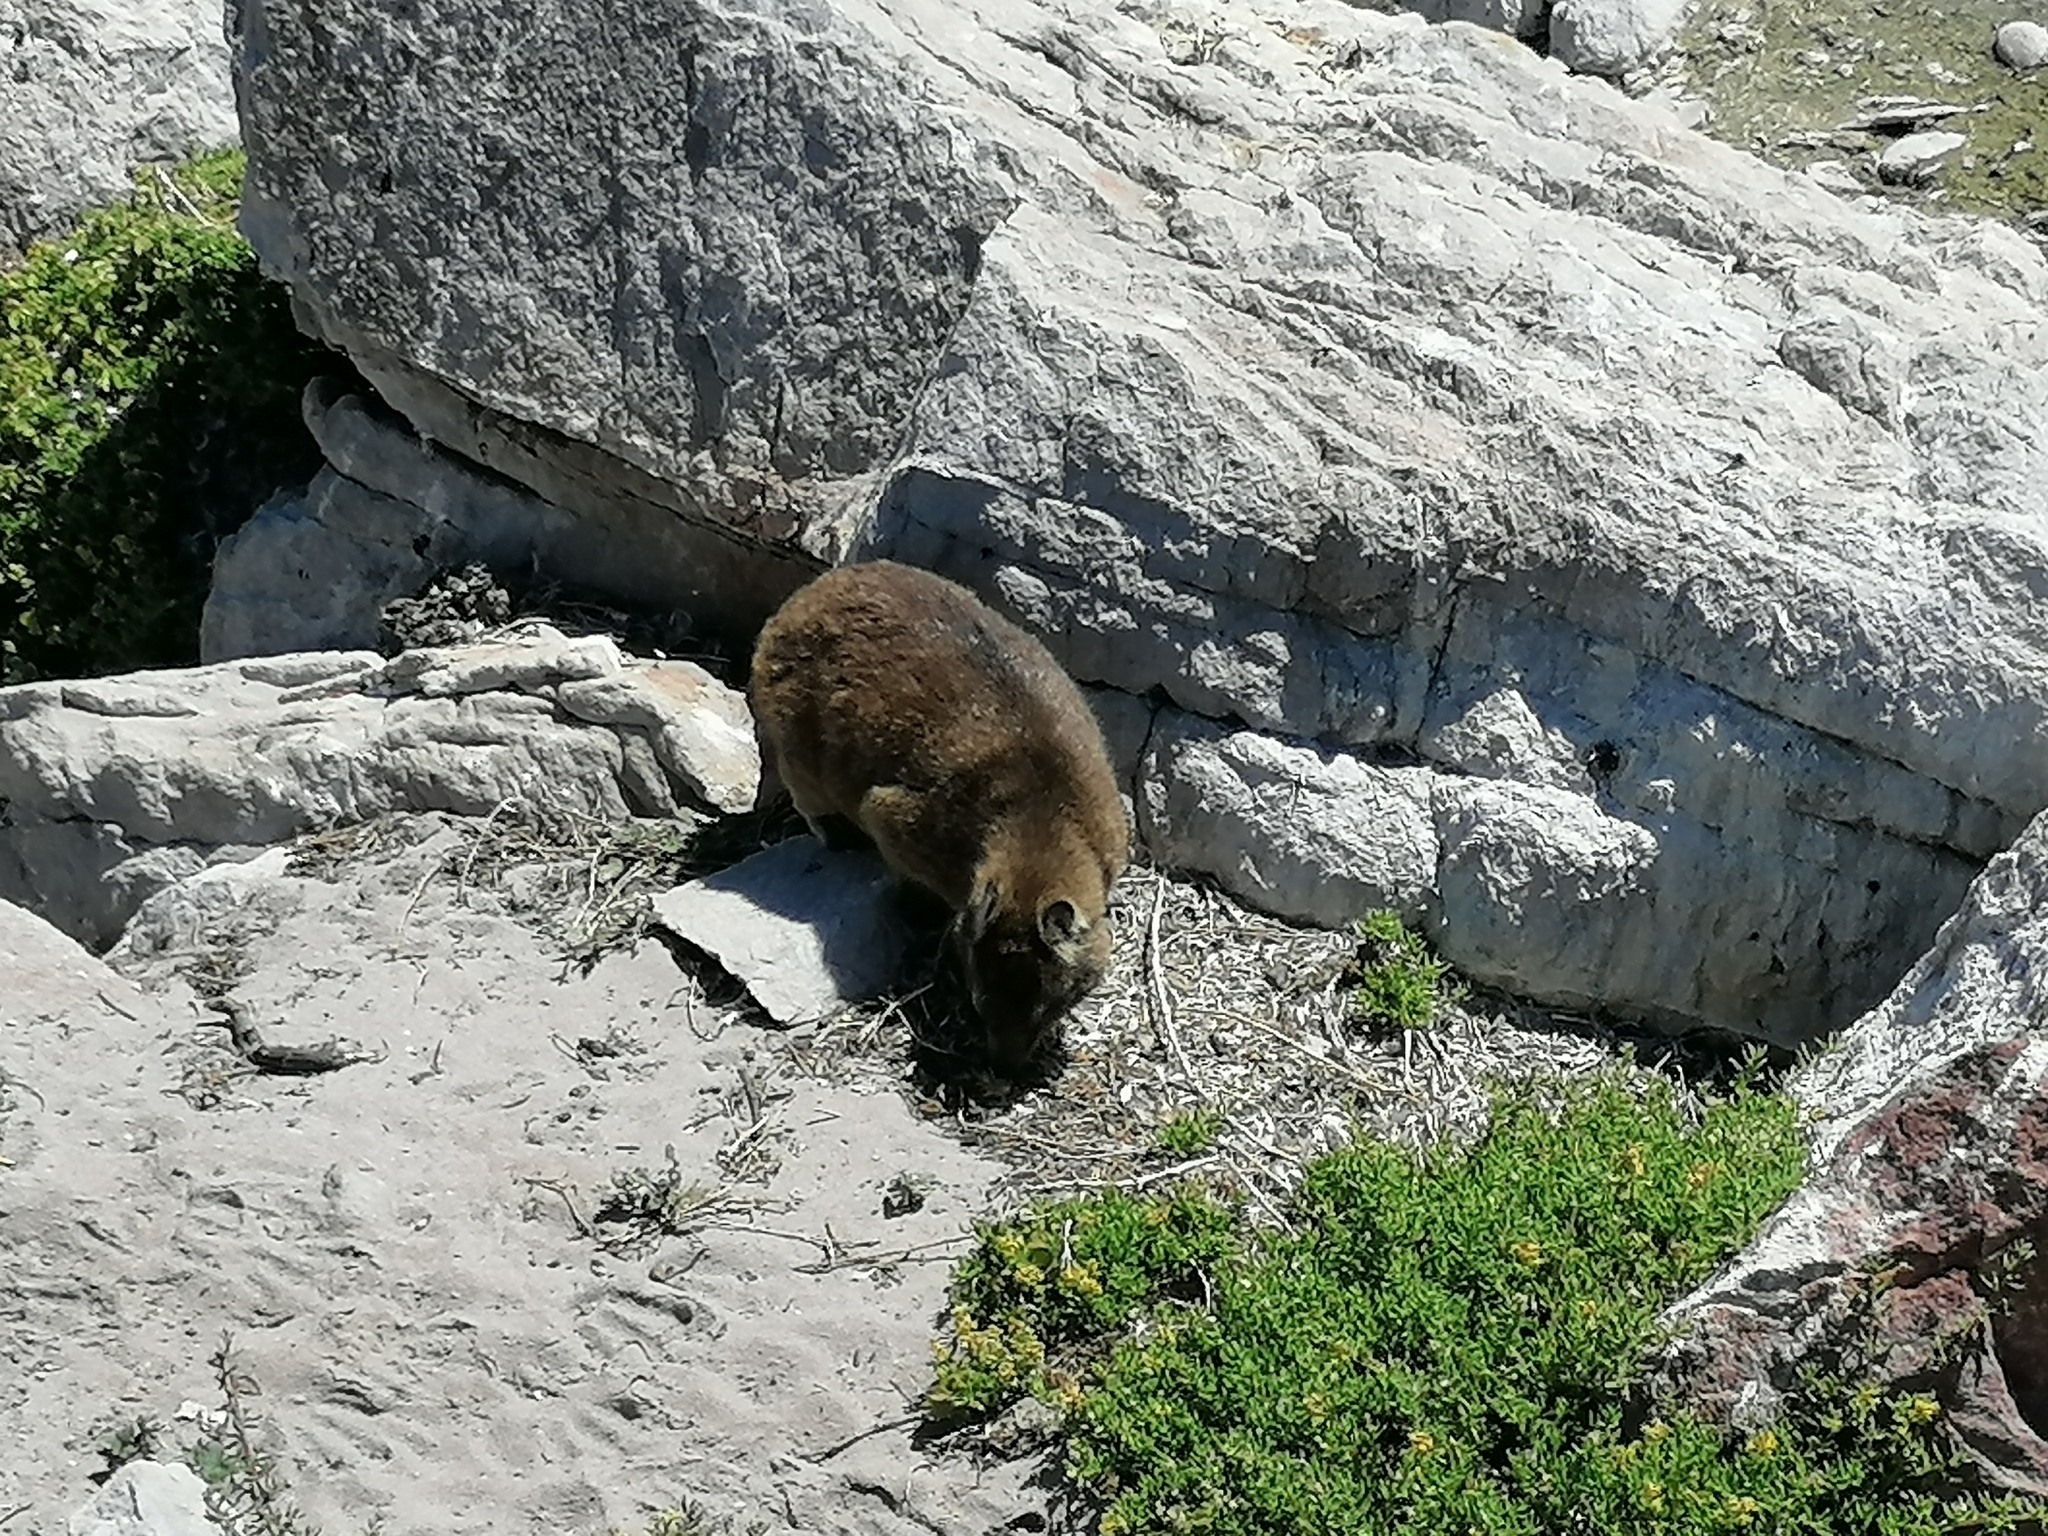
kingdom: Animalia
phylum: Chordata
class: Mammalia
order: Hyracoidea
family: Procaviidae
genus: Procavia
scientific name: Procavia capensis
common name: Rock hyrax
